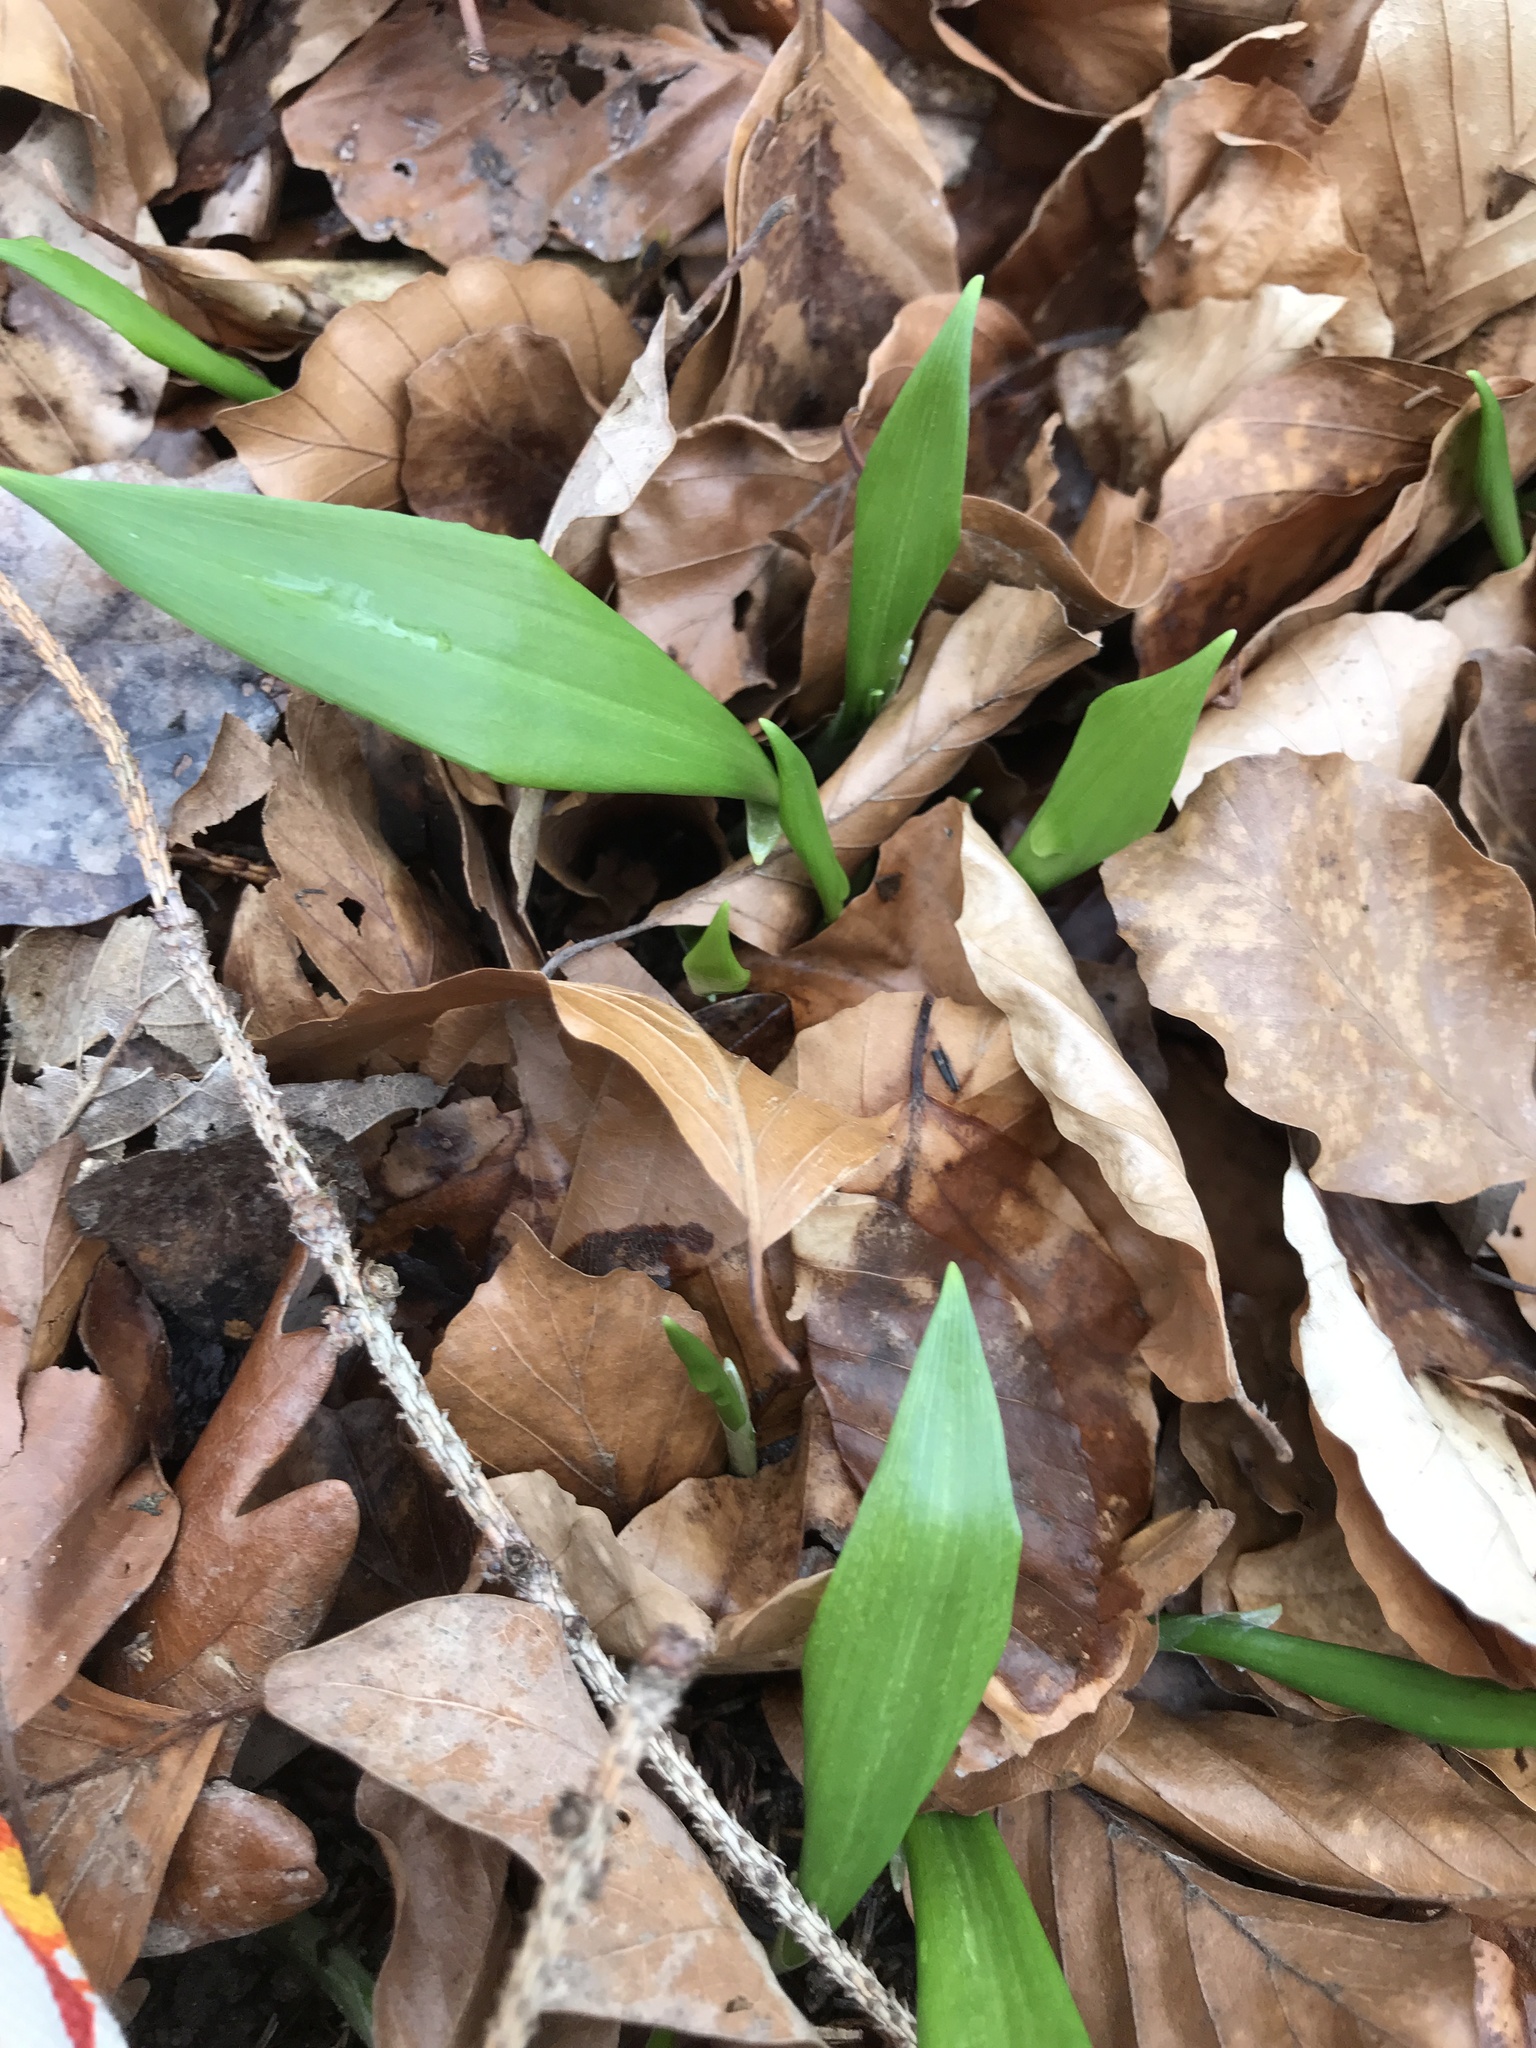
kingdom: Plantae
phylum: Tracheophyta
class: Liliopsida
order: Asparagales
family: Amaryllidaceae
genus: Allium
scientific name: Allium ursinum
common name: Ramsons
